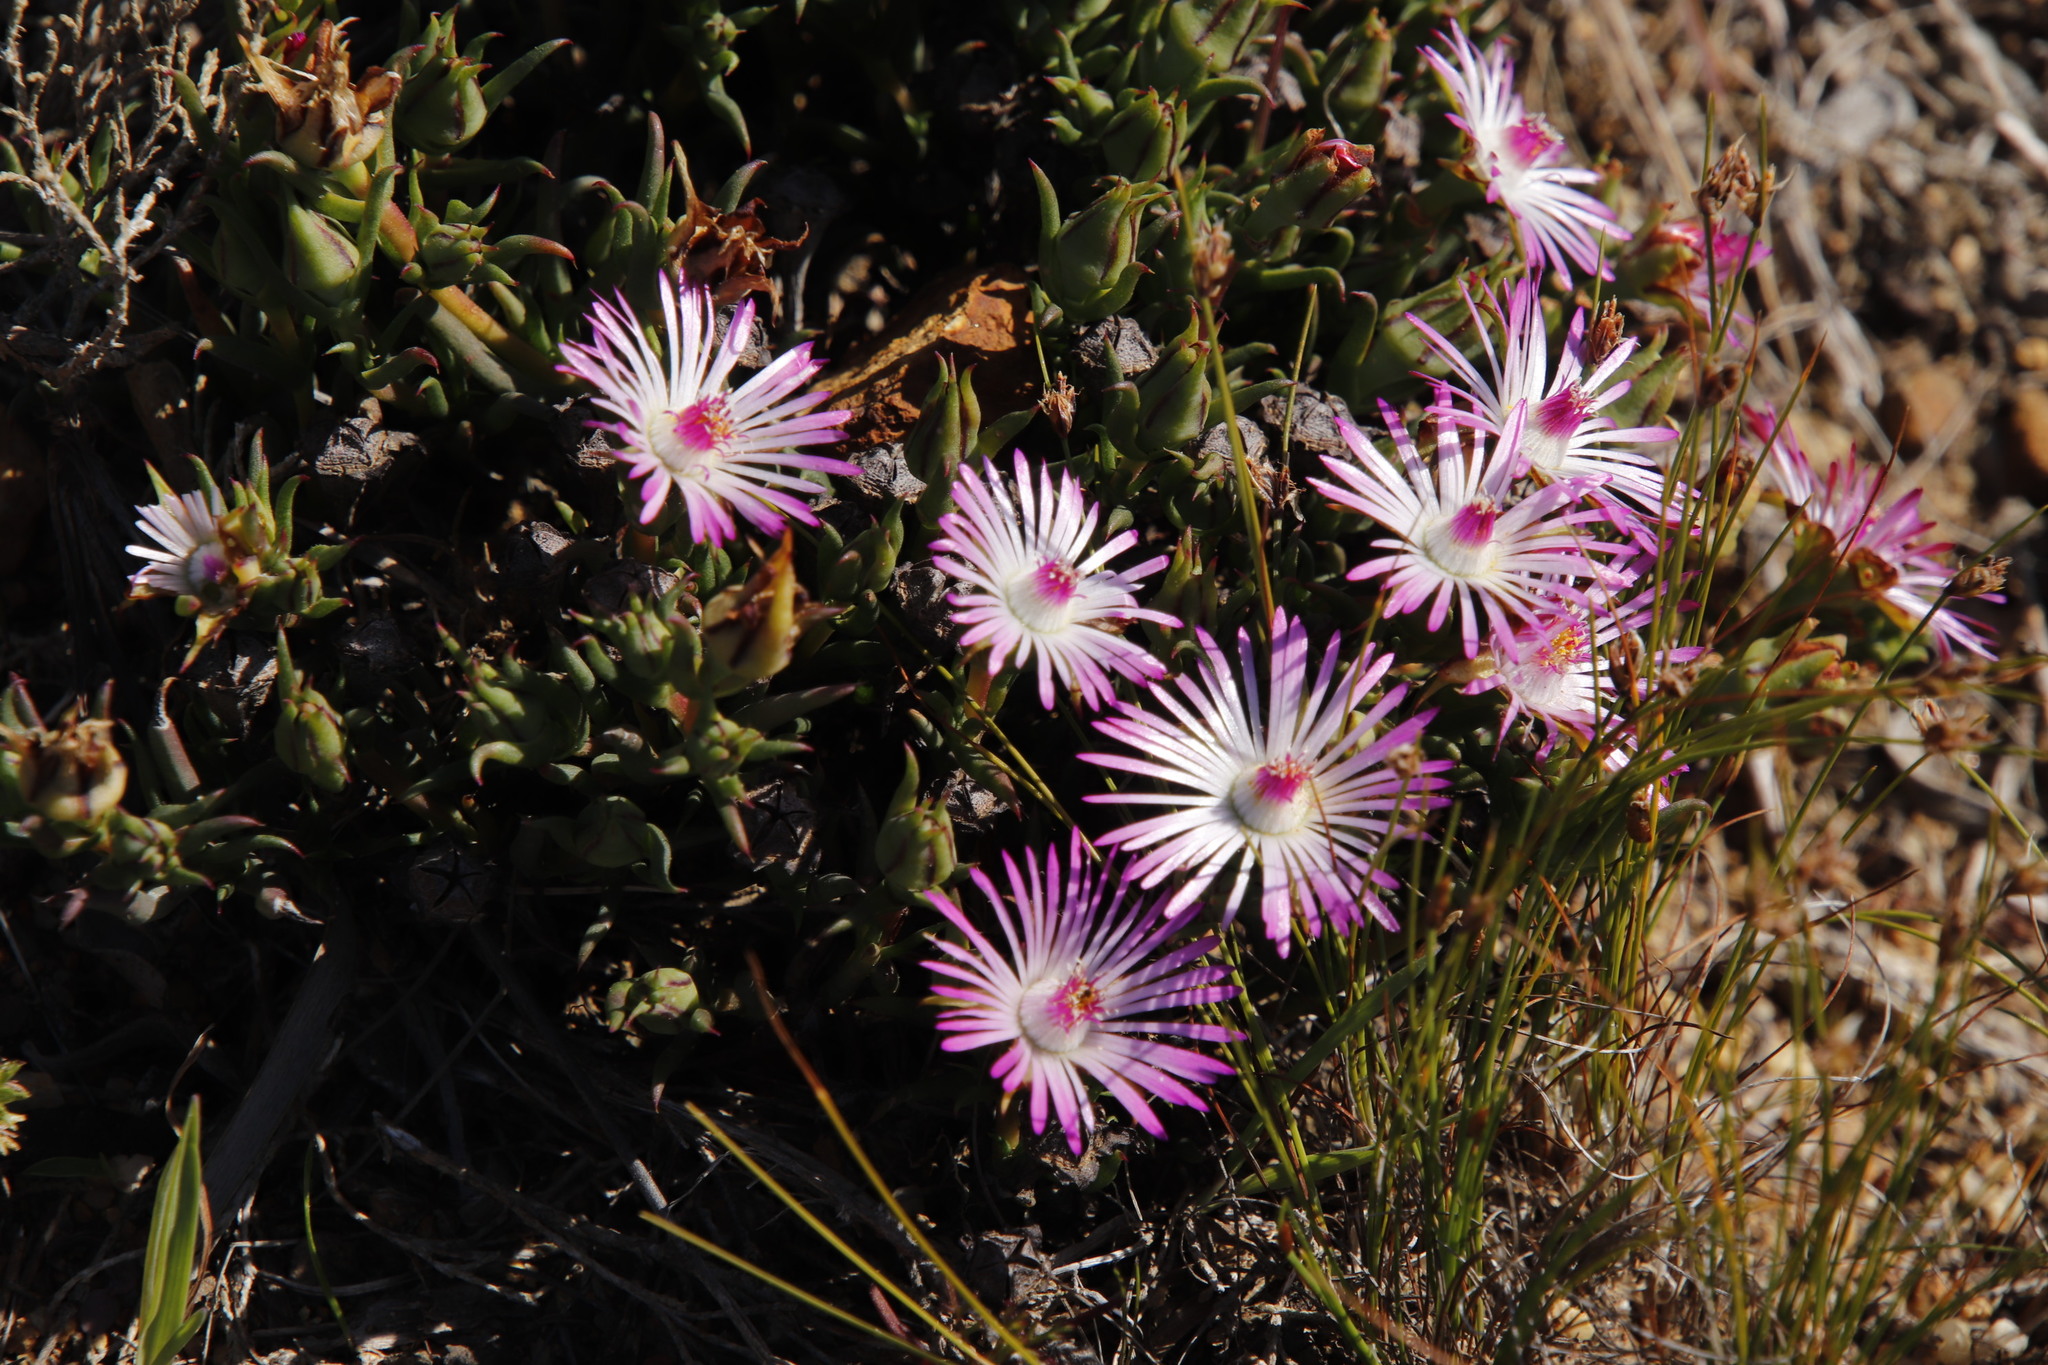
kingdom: Plantae
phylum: Tracheophyta
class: Magnoliopsida
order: Caryophyllales
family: Aizoaceae
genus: Lampranthus
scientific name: Lampranthus aduncus
